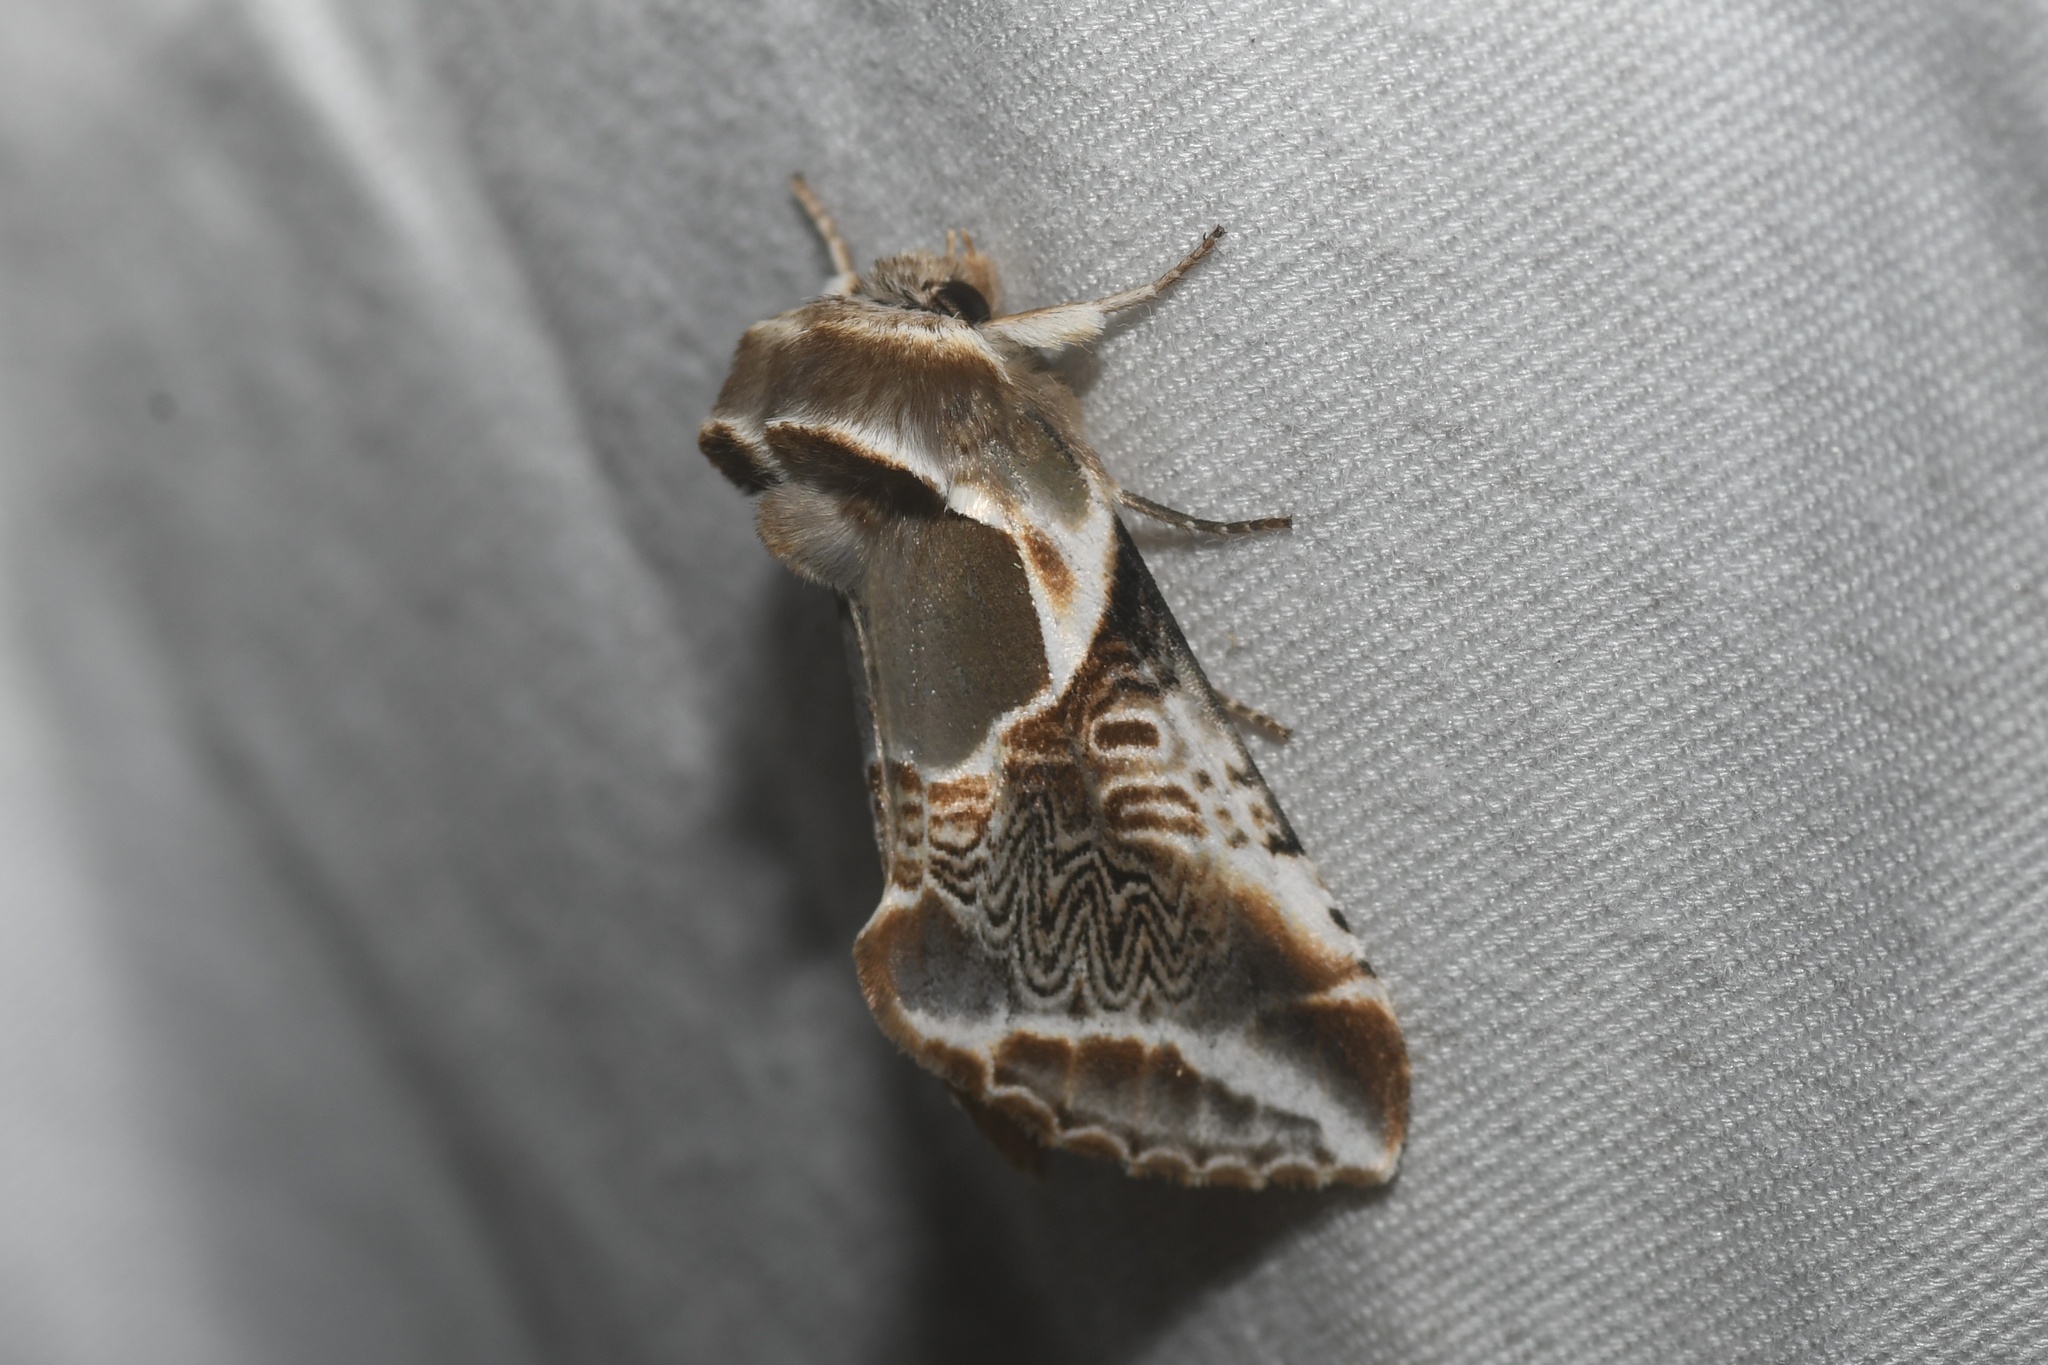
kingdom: Animalia
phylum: Arthropoda
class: Insecta
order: Lepidoptera
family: Drepanidae
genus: Habrosyne
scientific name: Habrosyne scripta
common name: Lettered habrosyne moth
